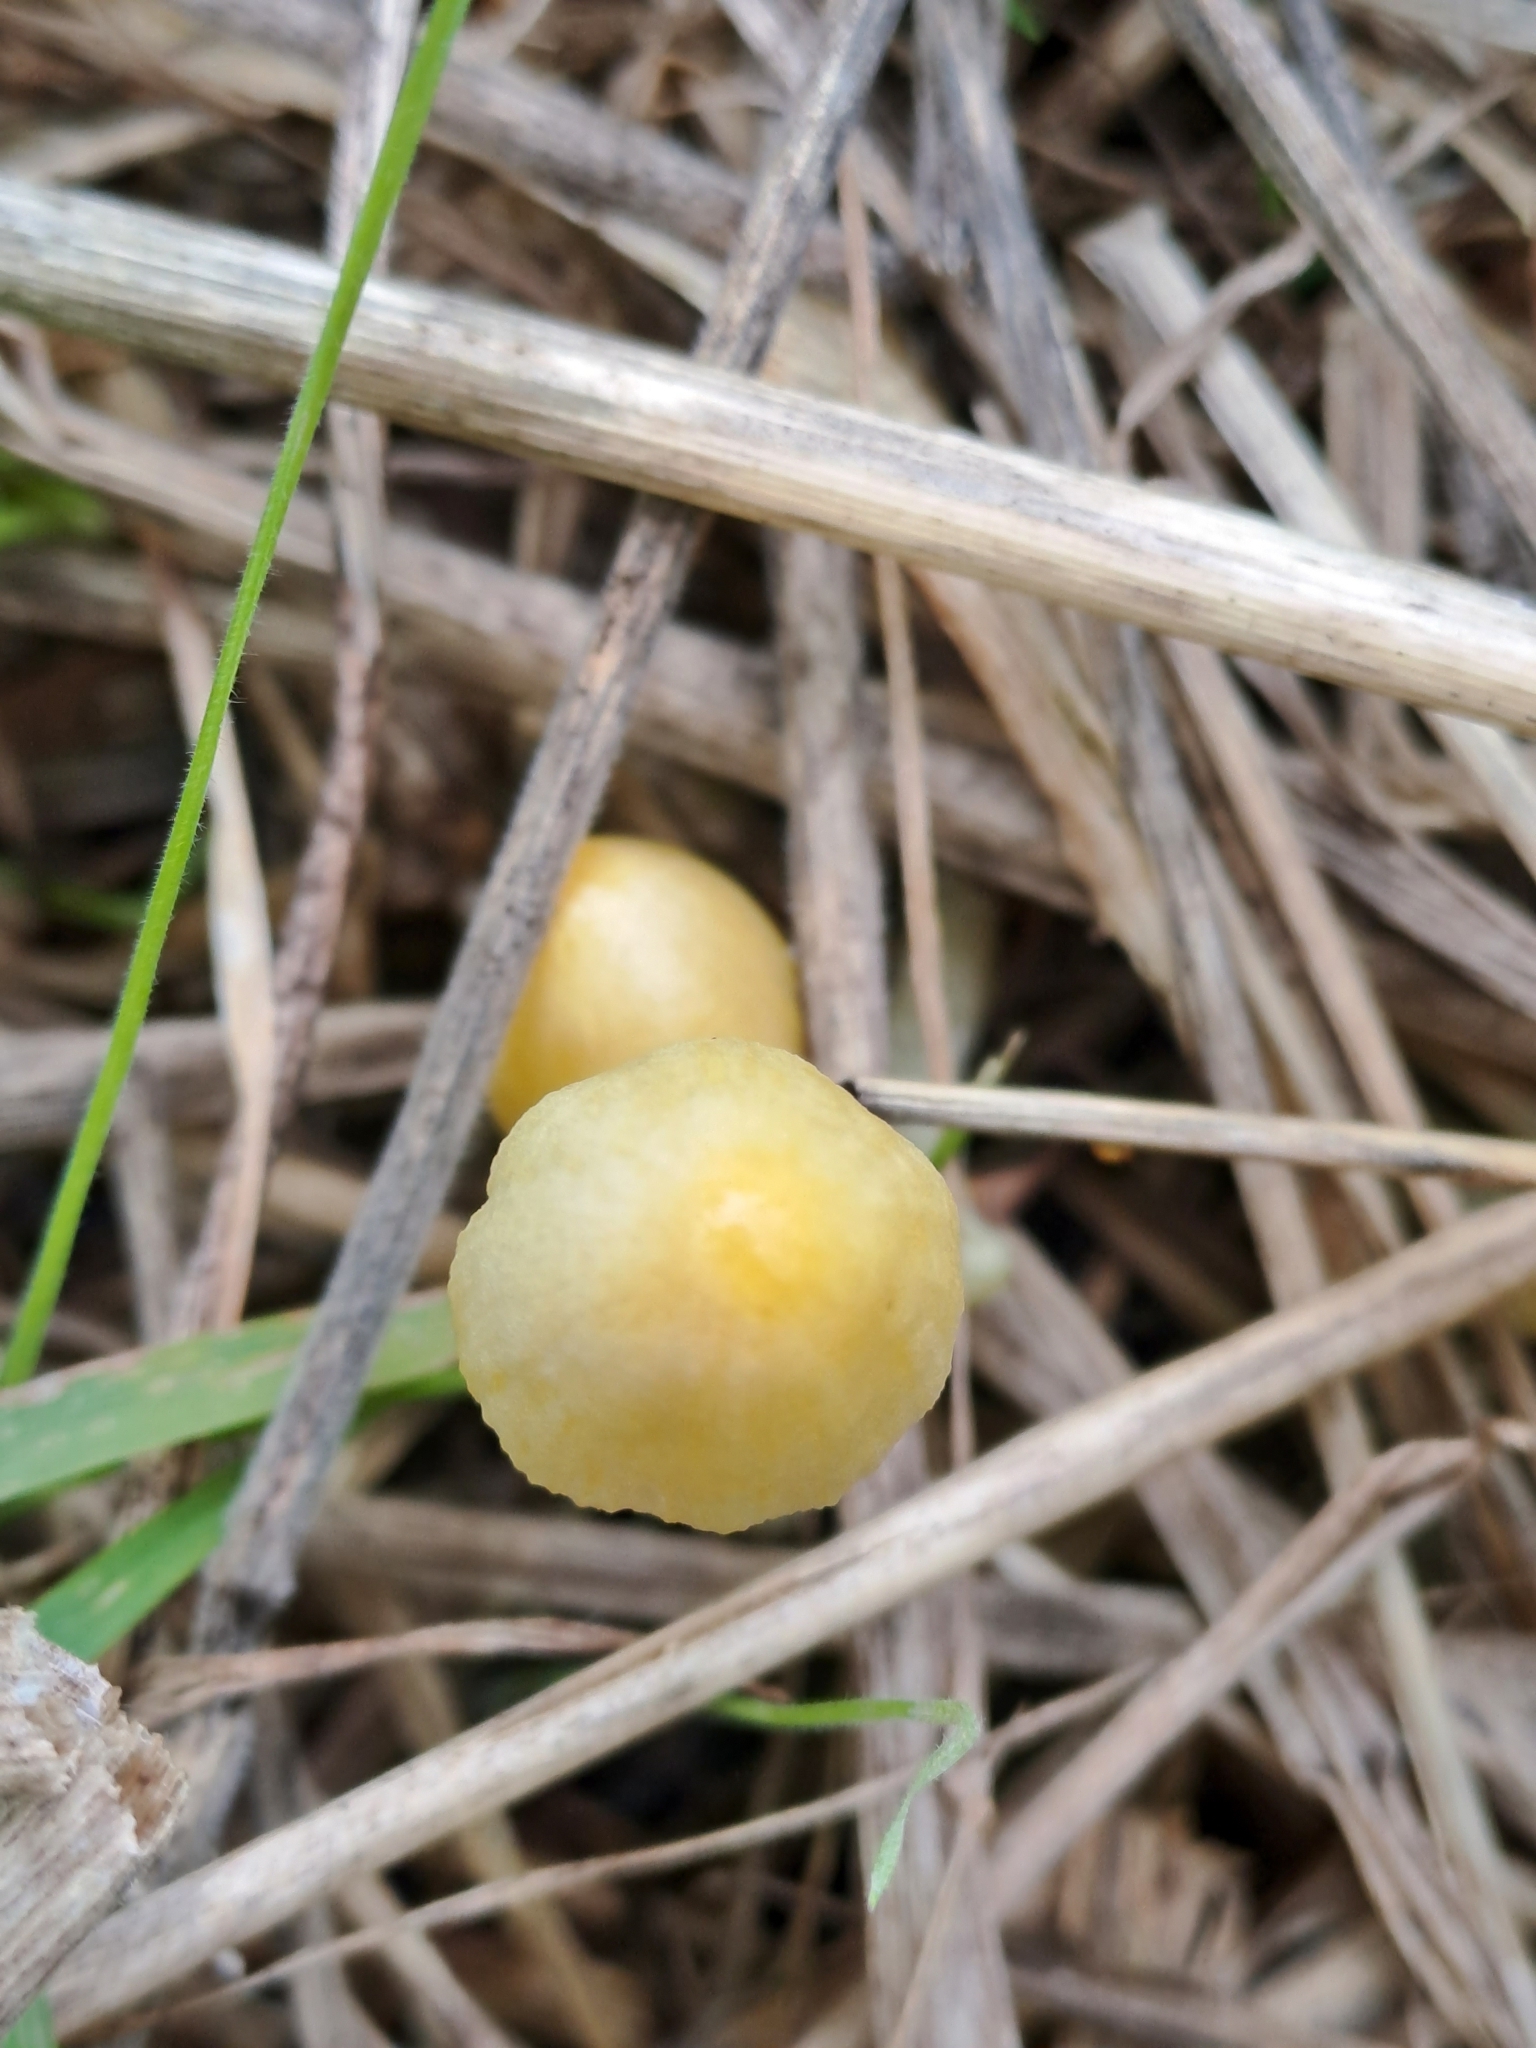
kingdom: Fungi
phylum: Basidiomycota
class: Agaricomycetes
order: Agaricales
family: Bolbitiaceae
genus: Bolbitius
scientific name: Bolbitius titubans
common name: Yellow fieldcap
